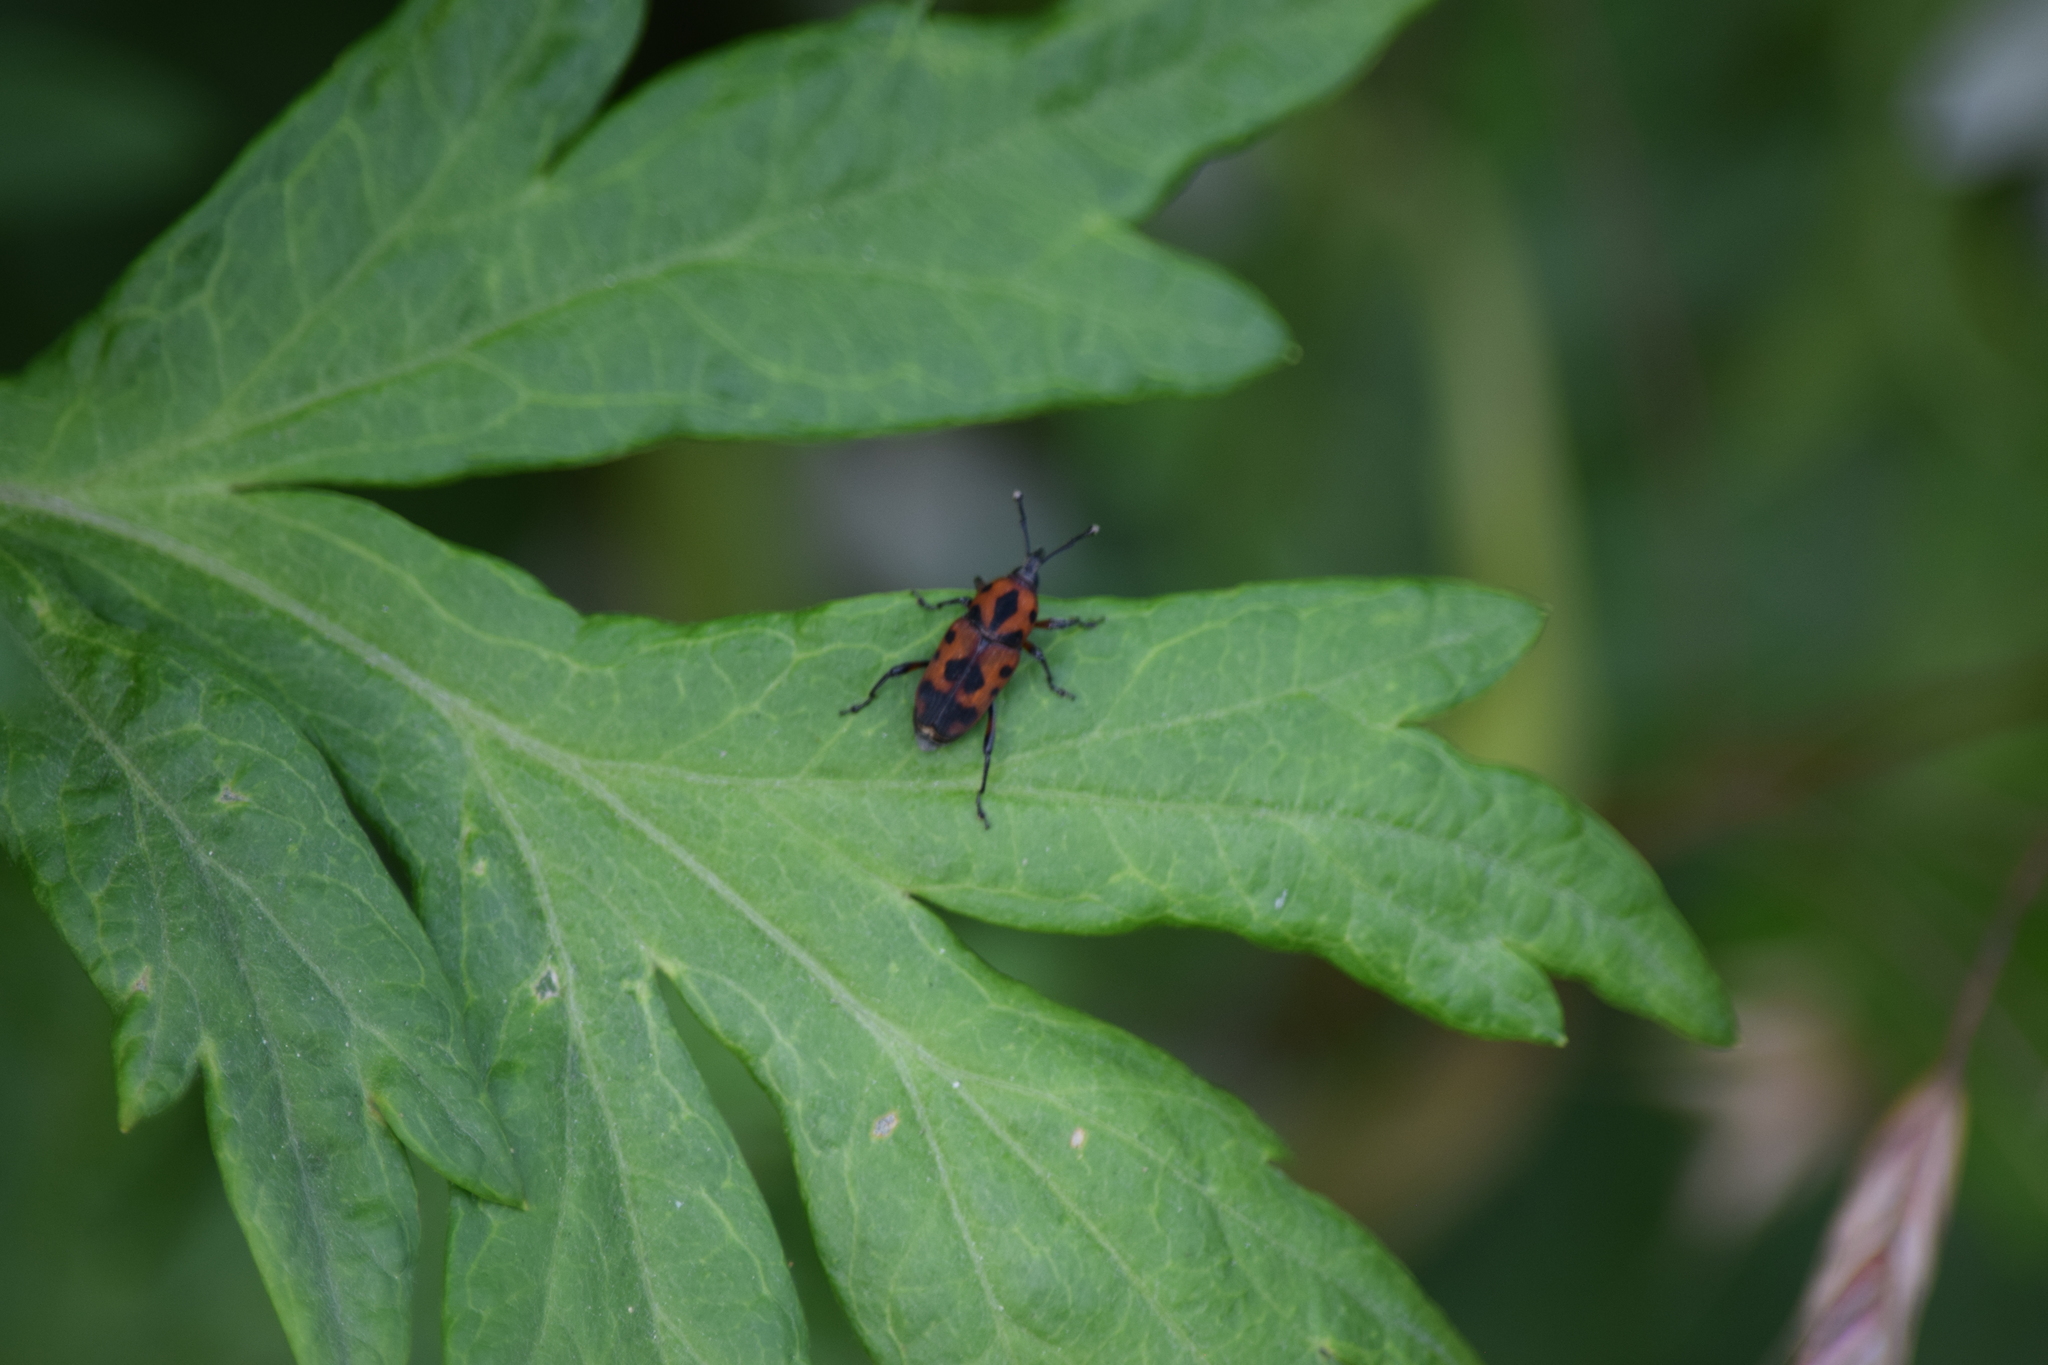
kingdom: Animalia
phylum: Arthropoda
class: Insecta
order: Coleoptera
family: Dryophthoridae
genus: Rhodobaenus
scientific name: Rhodobaenus quinquepunctatus
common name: Cocklebur weevil
